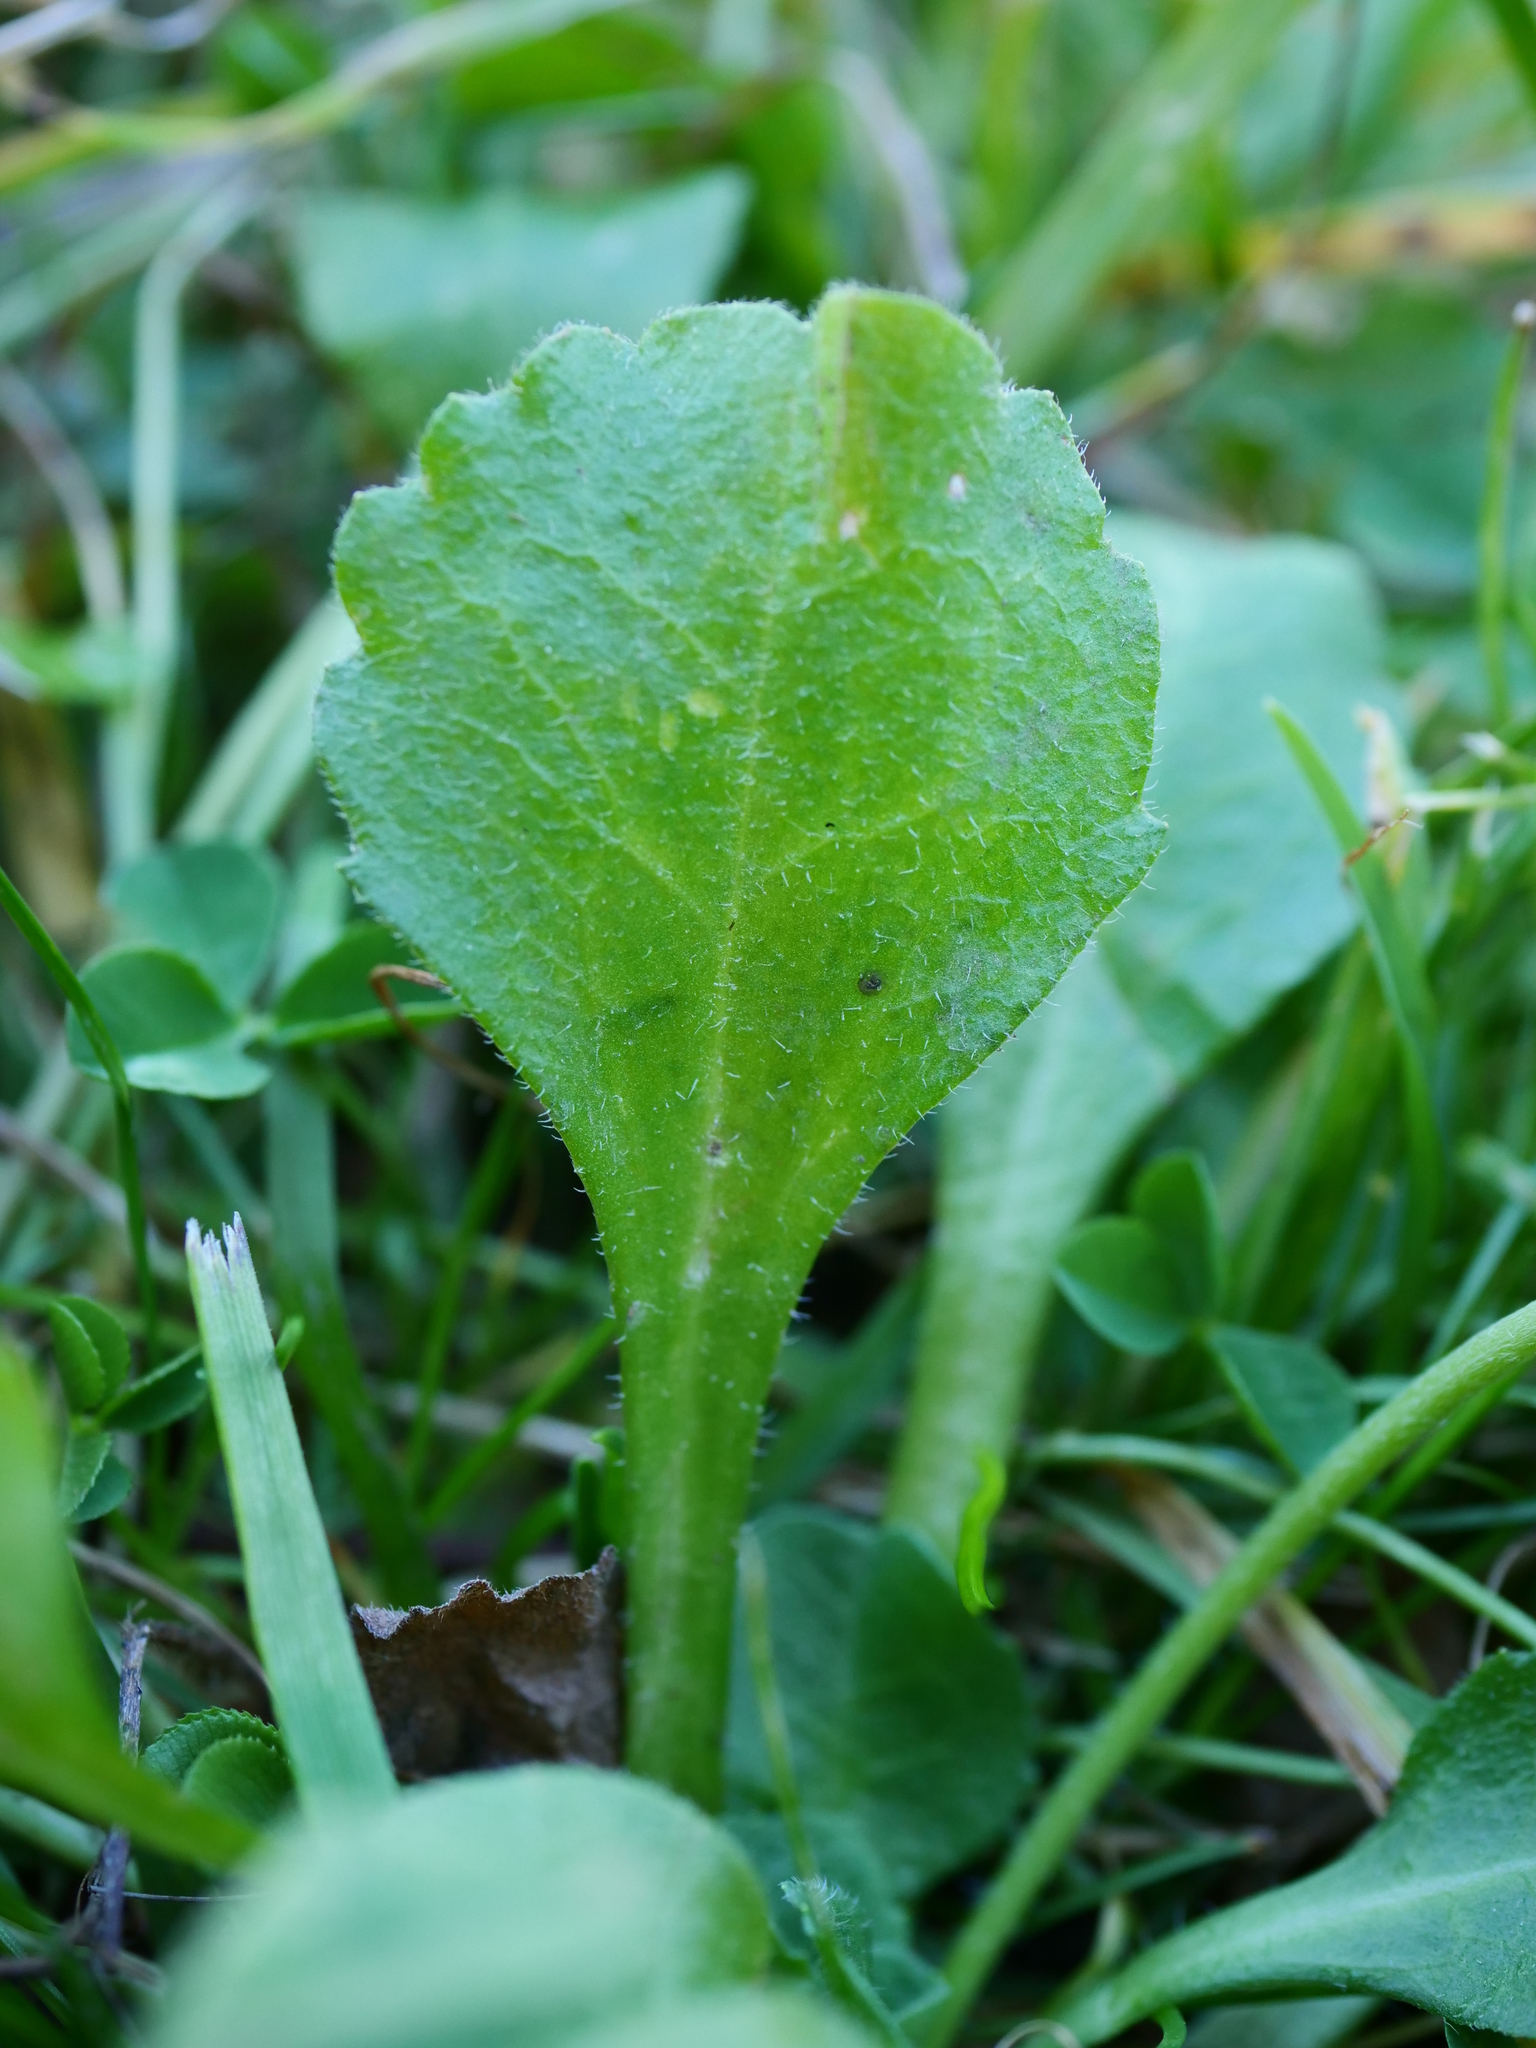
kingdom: Plantae
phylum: Tracheophyta
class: Magnoliopsida
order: Asterales
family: Asteraceae
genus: Bellis
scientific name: Bellis perennis
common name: Lawndaisy
